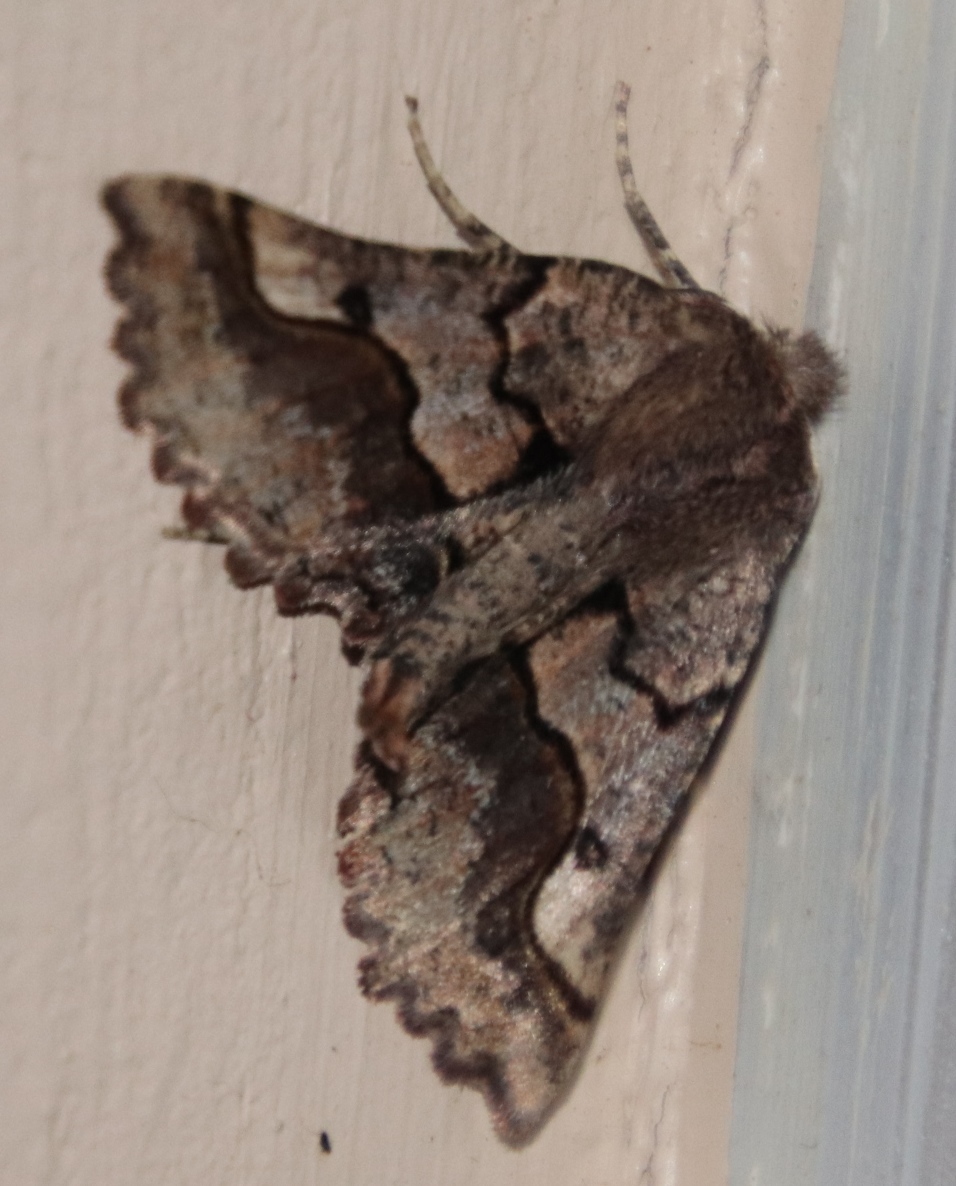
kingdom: Animalia
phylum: Arthropoda
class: Insecta
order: Lepidoptera
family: Geometridae
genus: Drepanogynis
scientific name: Drepanogynis sinuata
